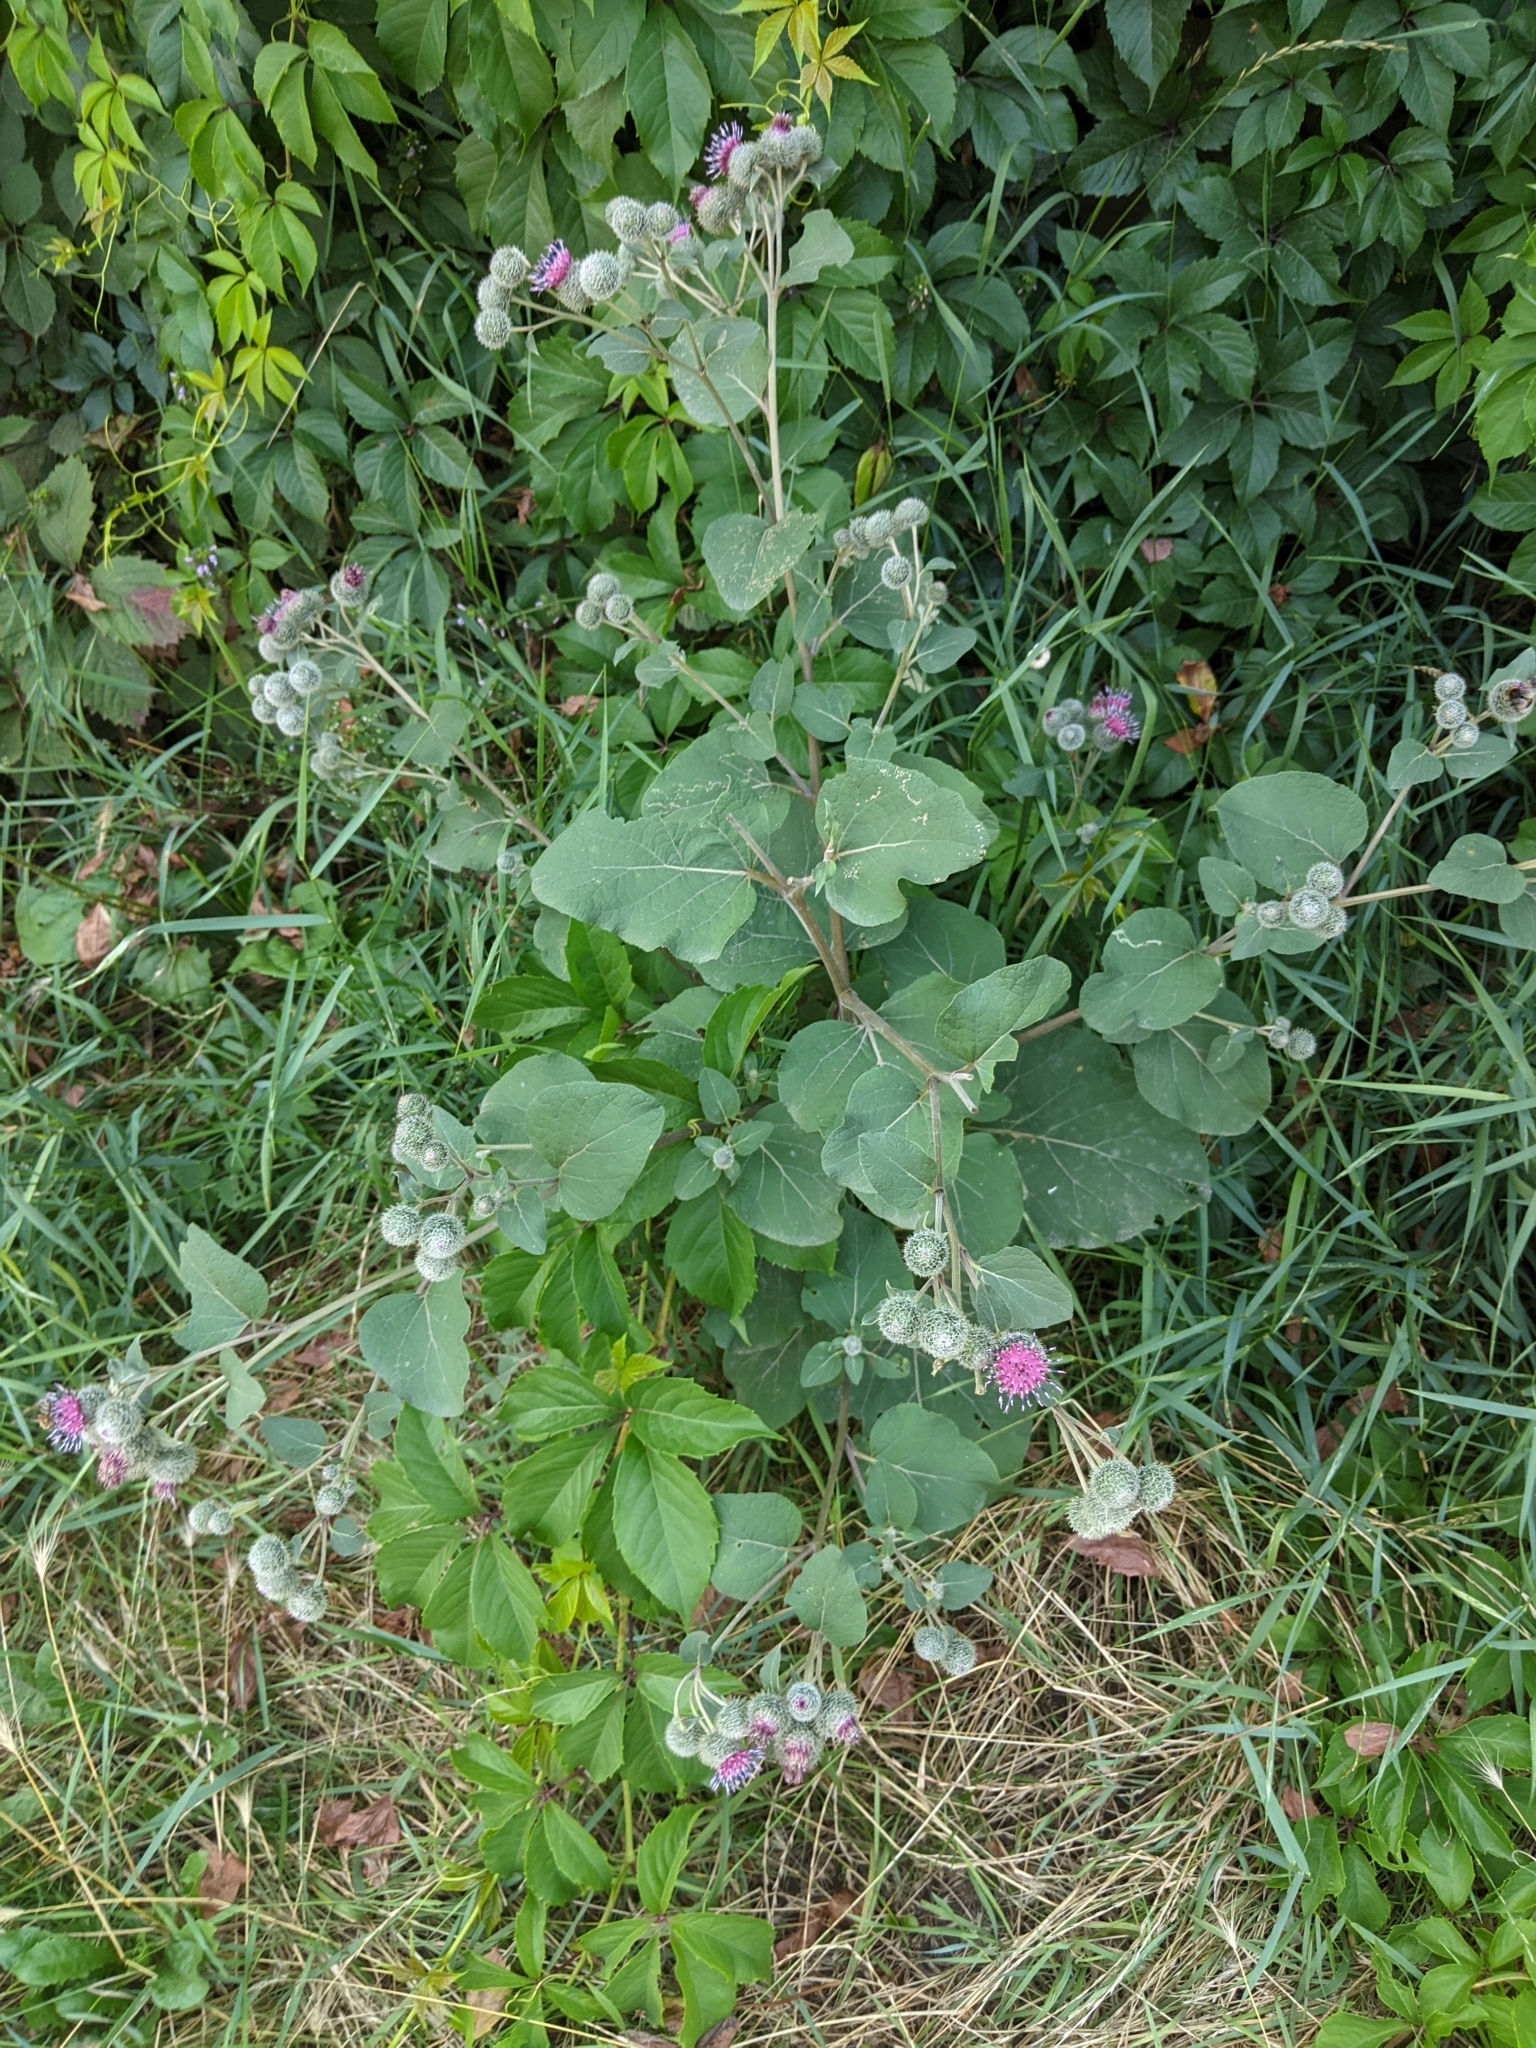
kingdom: Plantae
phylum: Tracheophyta
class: Magnoliopsida
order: Asterales
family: Asteraceae
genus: Arctium
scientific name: Arctium tomentosum
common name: Woolly burdock
